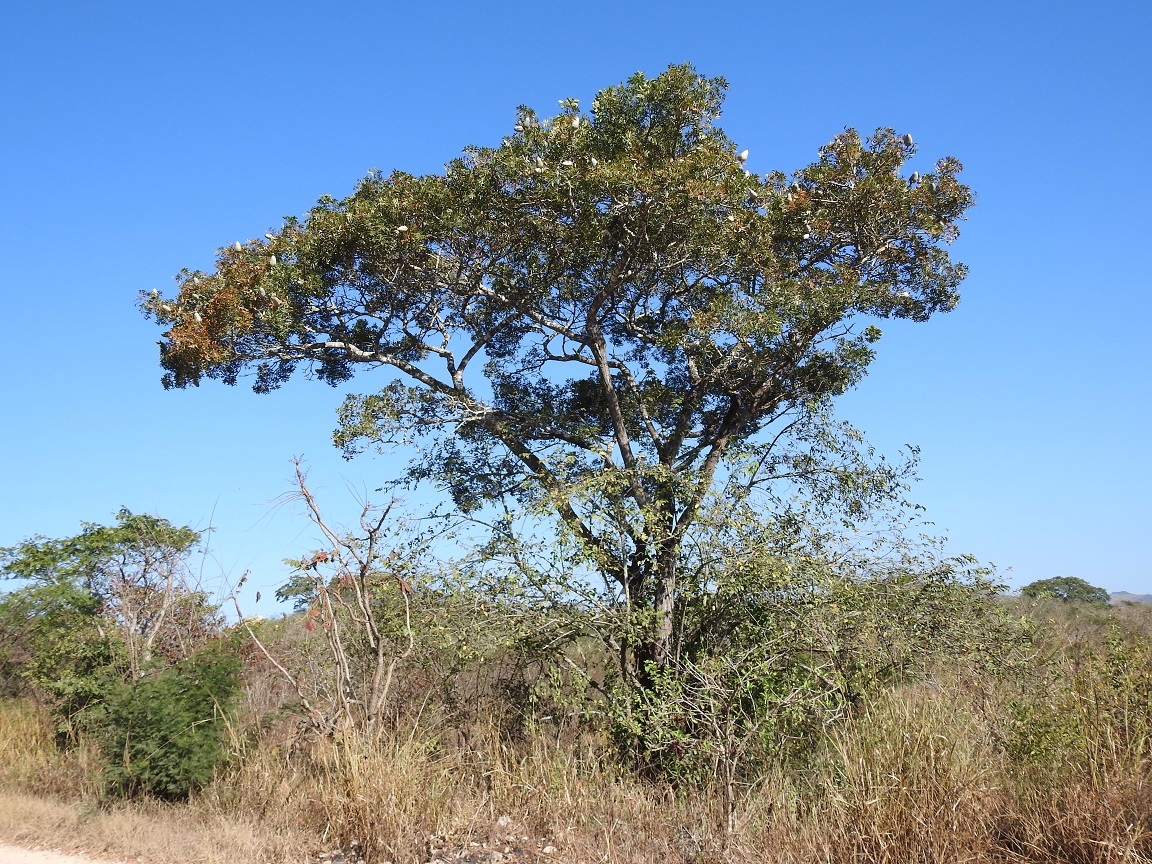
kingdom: Plantae
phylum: Tracheophyta
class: Magnoliopsida
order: Sapindales
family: Meliaceae
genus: Swietenia
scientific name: Swietenia humilis
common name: Pacific coast mahogany
